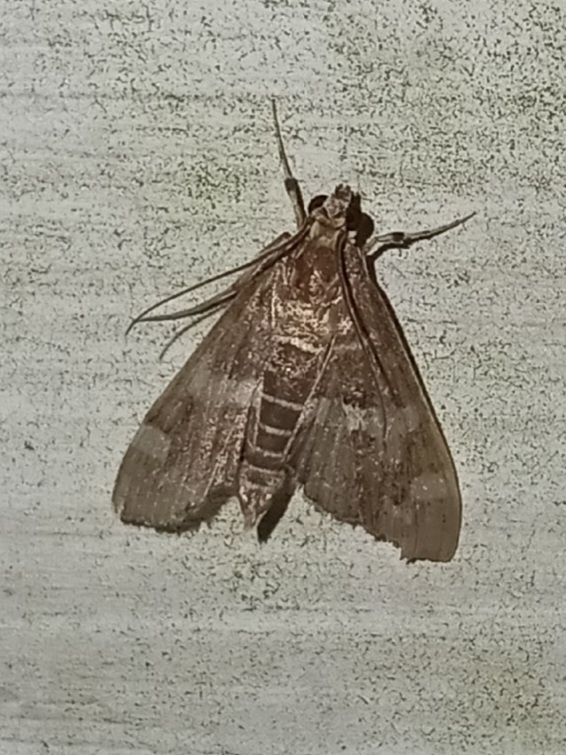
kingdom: Animalia
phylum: Arthropoda
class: Insecta
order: Lepidoptera
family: Crambidae
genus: Spoladea
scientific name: Spoladea recurvalis
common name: Beet webworm moth
